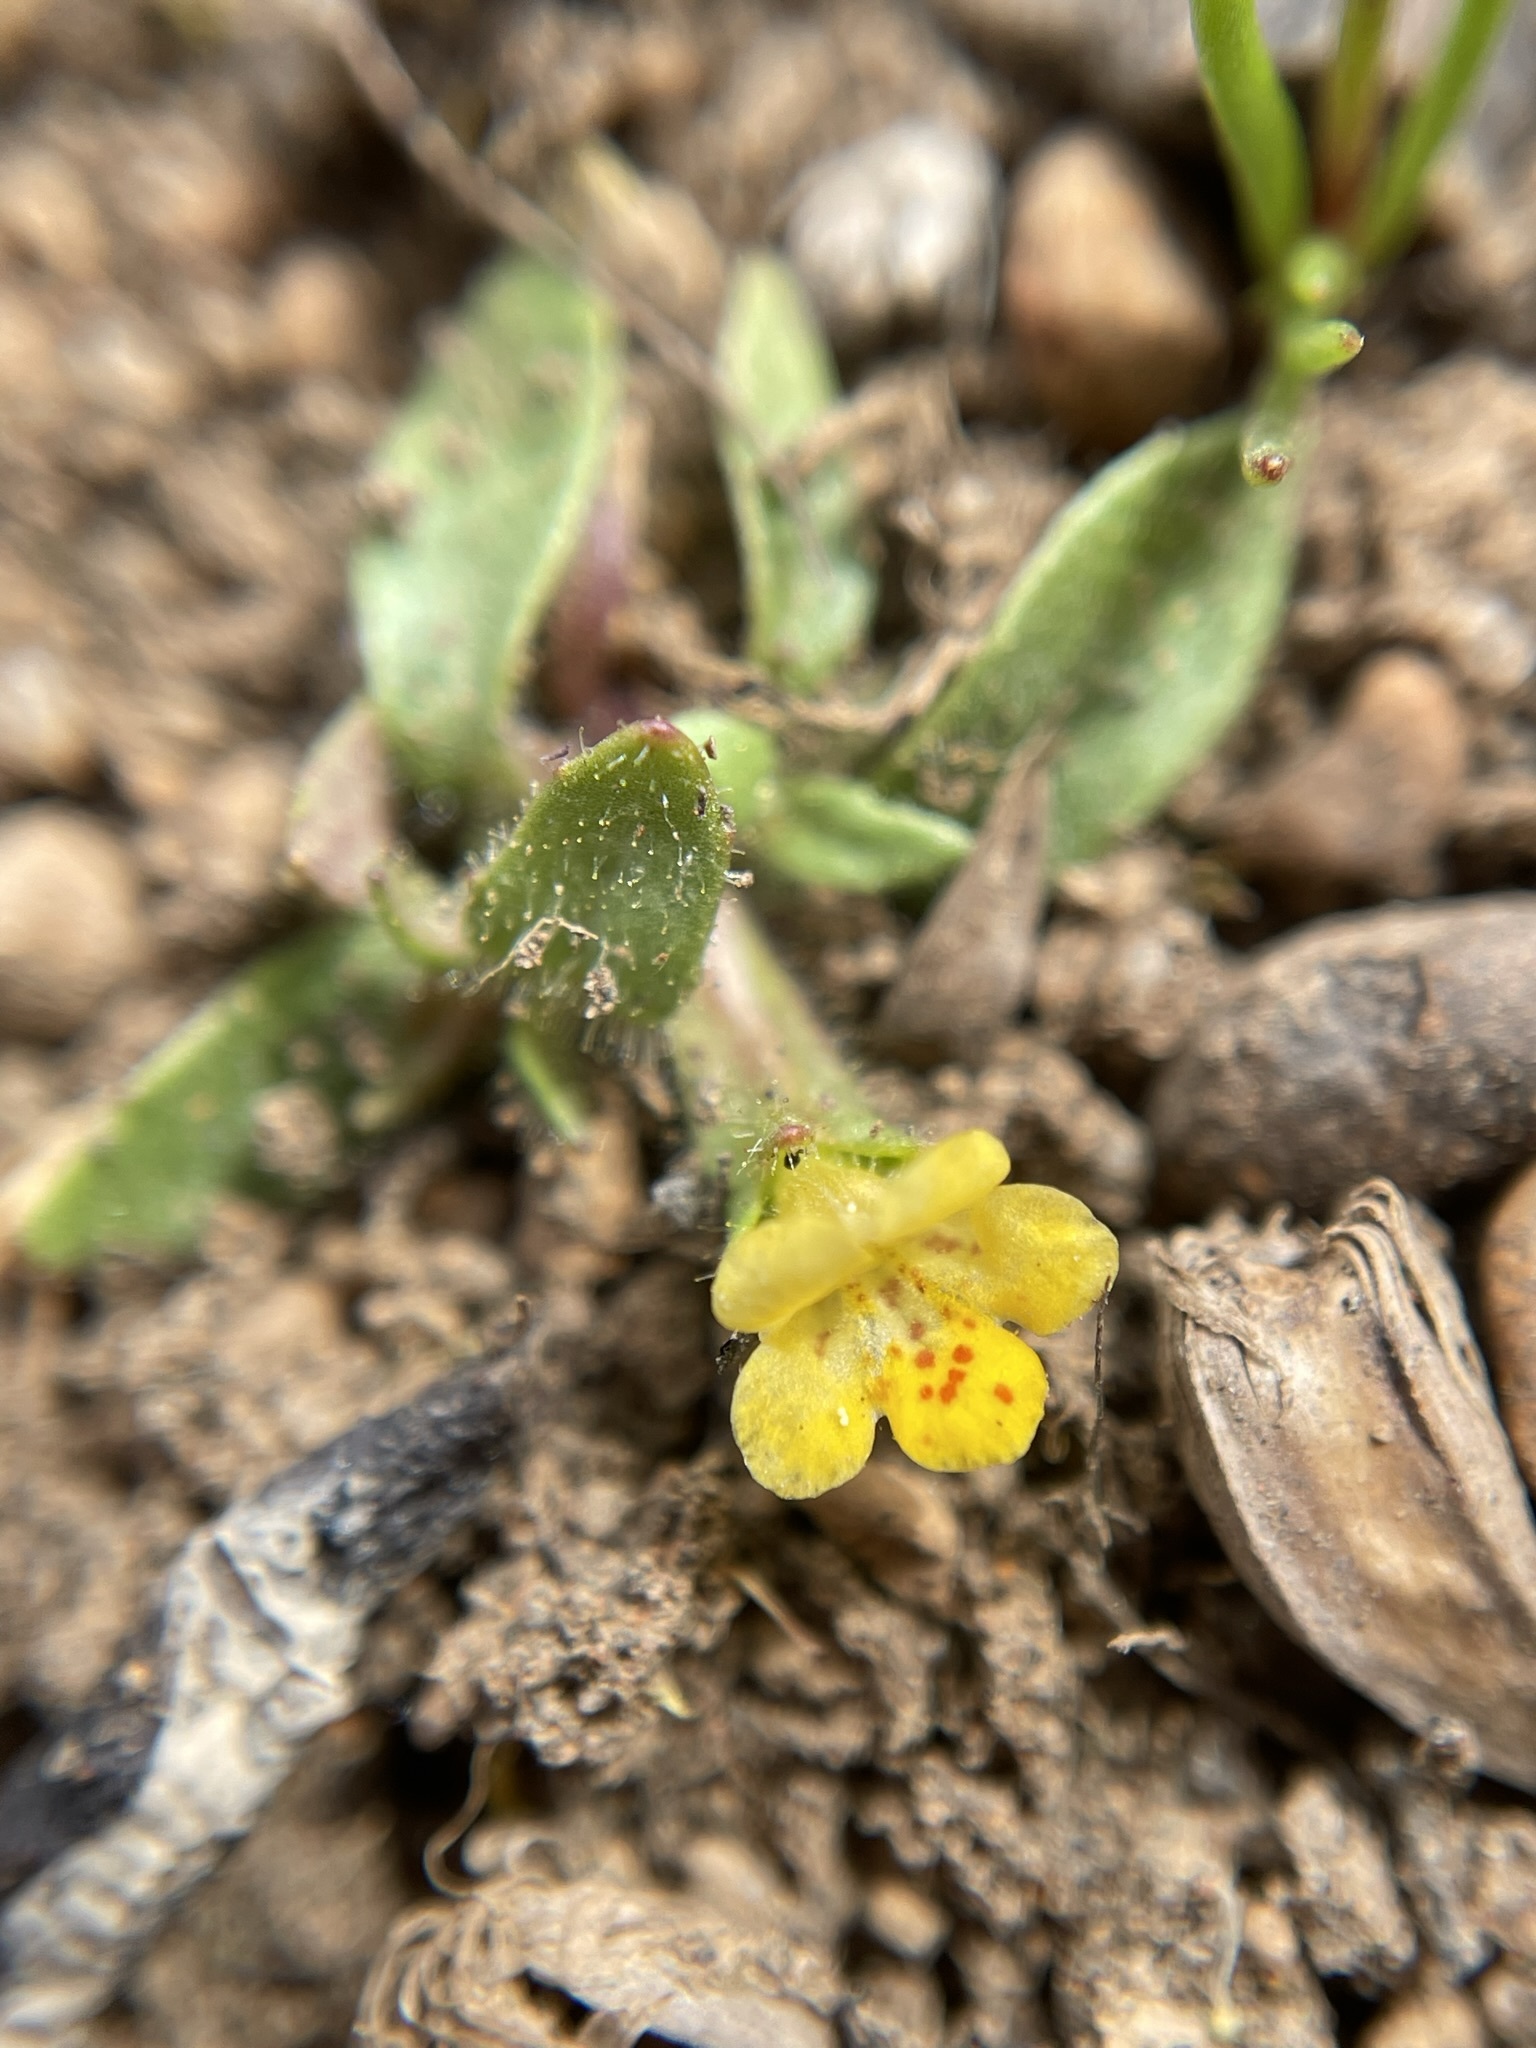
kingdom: Plantae
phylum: Tracheophyta
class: Magnoliopsida
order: Lamiales
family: Phrymaceae
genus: Diplacus
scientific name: Diplacus pygmaeus
